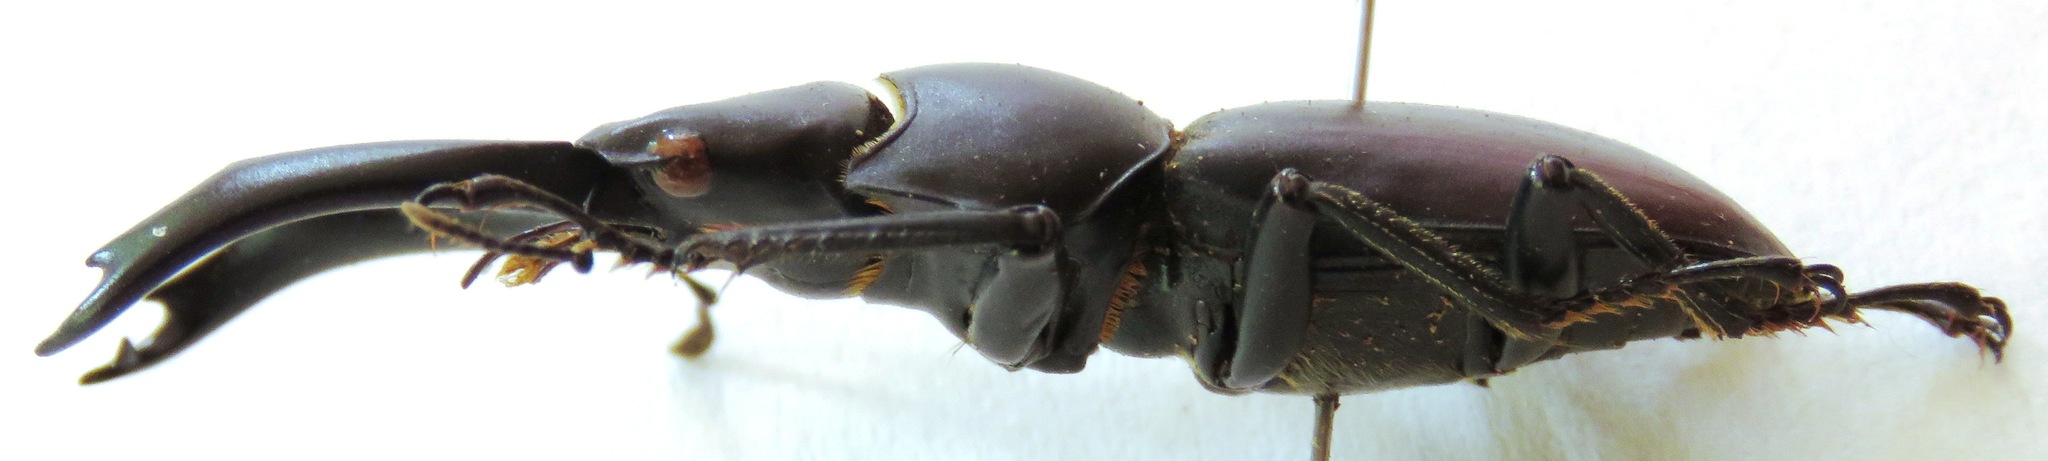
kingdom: Animalia
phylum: Arthropoda
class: Insecta
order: Coleoptera
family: Lucanidae
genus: Dorcus
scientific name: Dorcus fujii
